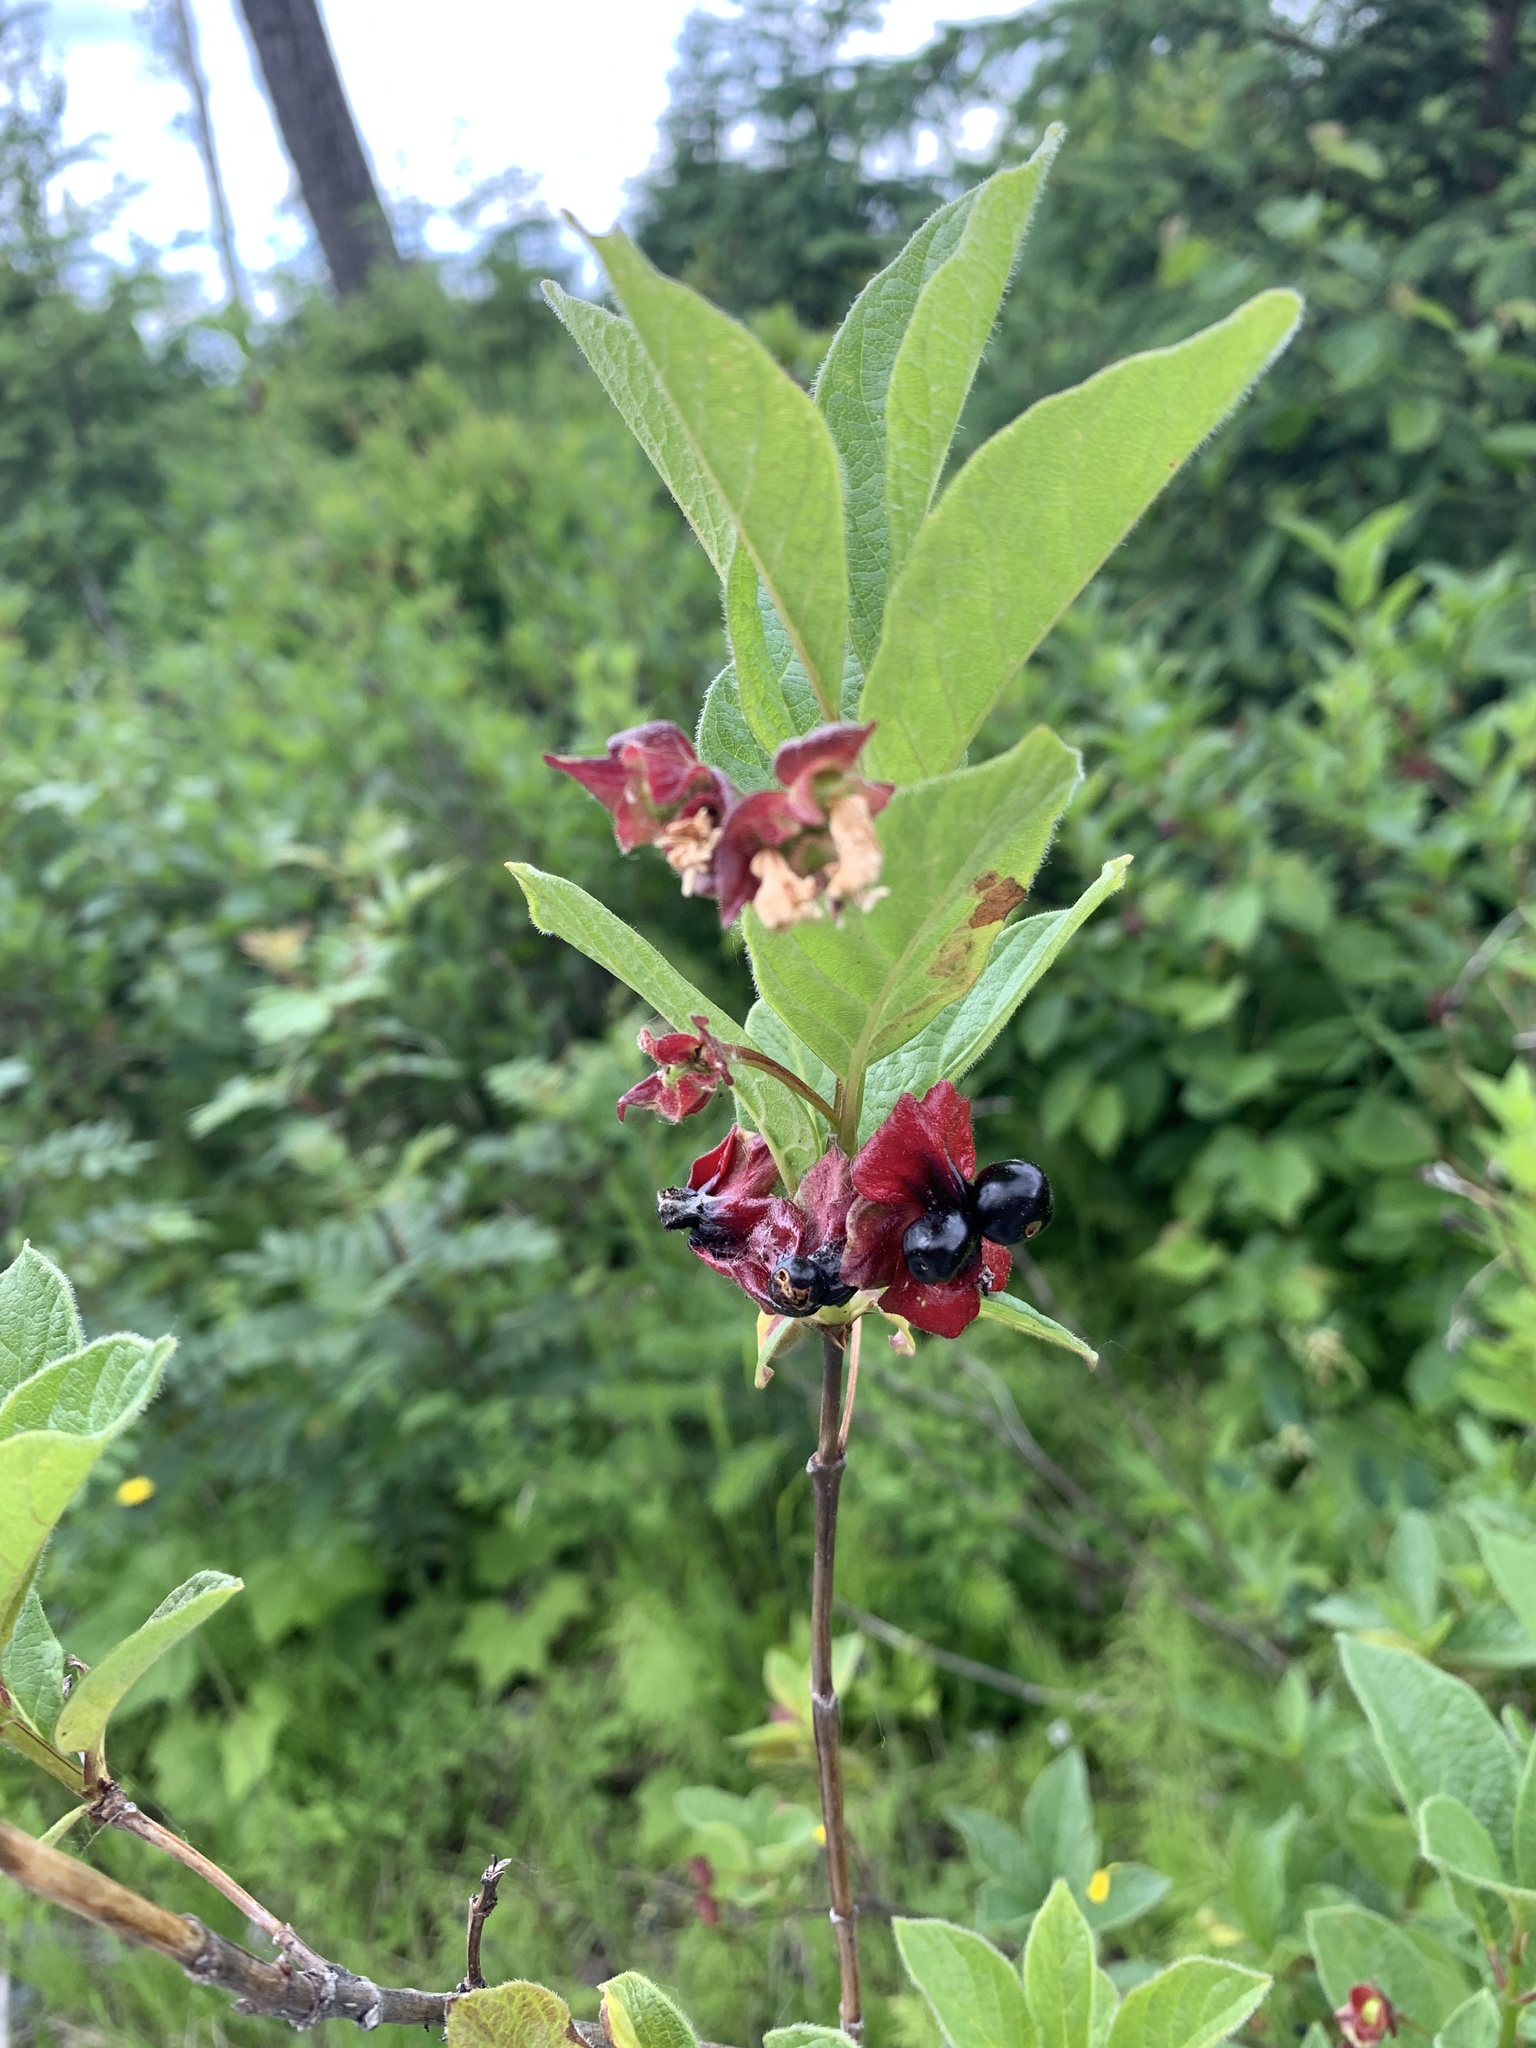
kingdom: Plantae
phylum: Tracheophyta
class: Magnoliopsida
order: Dipsacales
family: Caprifoliaceae
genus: Lonicera
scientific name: Lonicera involucrata
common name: Californian honeysuckle
